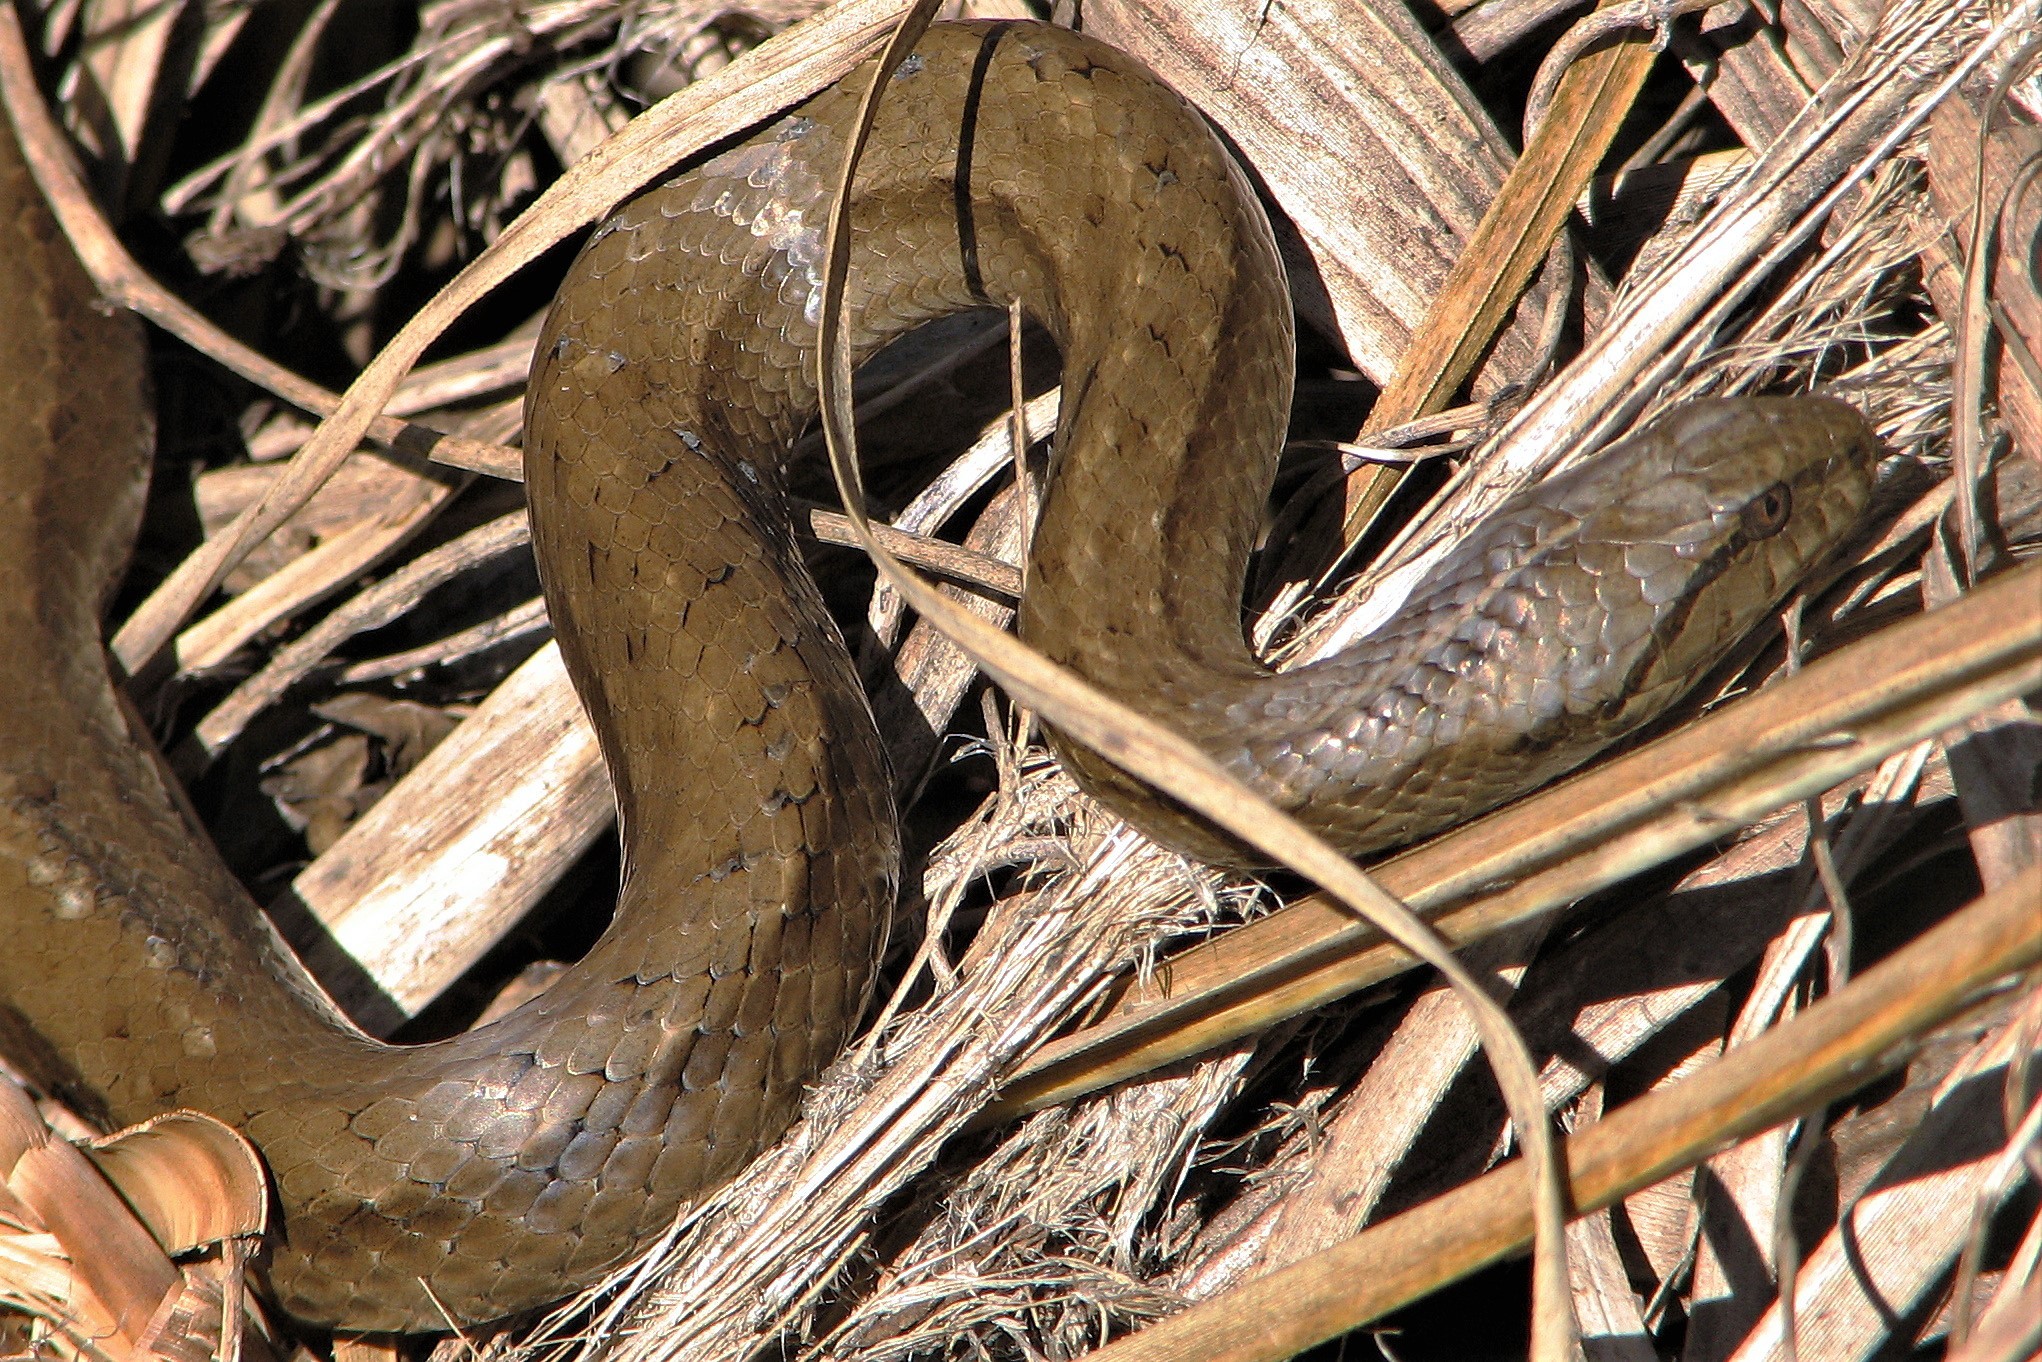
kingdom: Animalia
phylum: Chordata
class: Squamata
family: Colubridae
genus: Mesotes
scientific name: Mesotes
